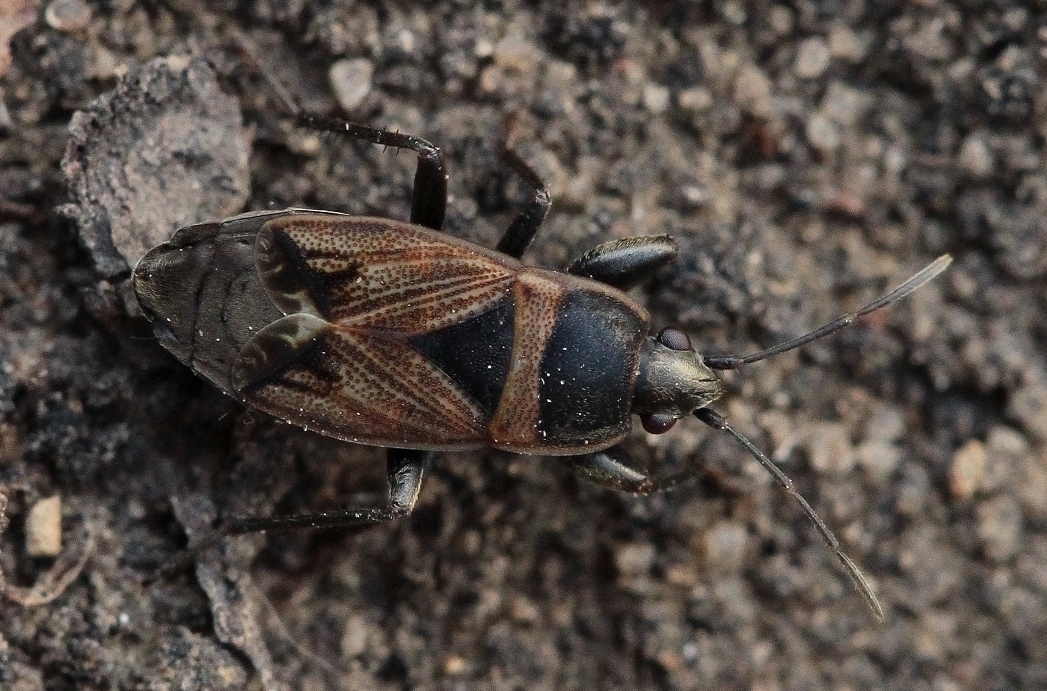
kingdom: Animalia
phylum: Arthropoda
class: Insecta
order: Hemiptera
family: Rhyparochromidae
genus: Bleteogonus
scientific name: Bleteogonus beckeri
